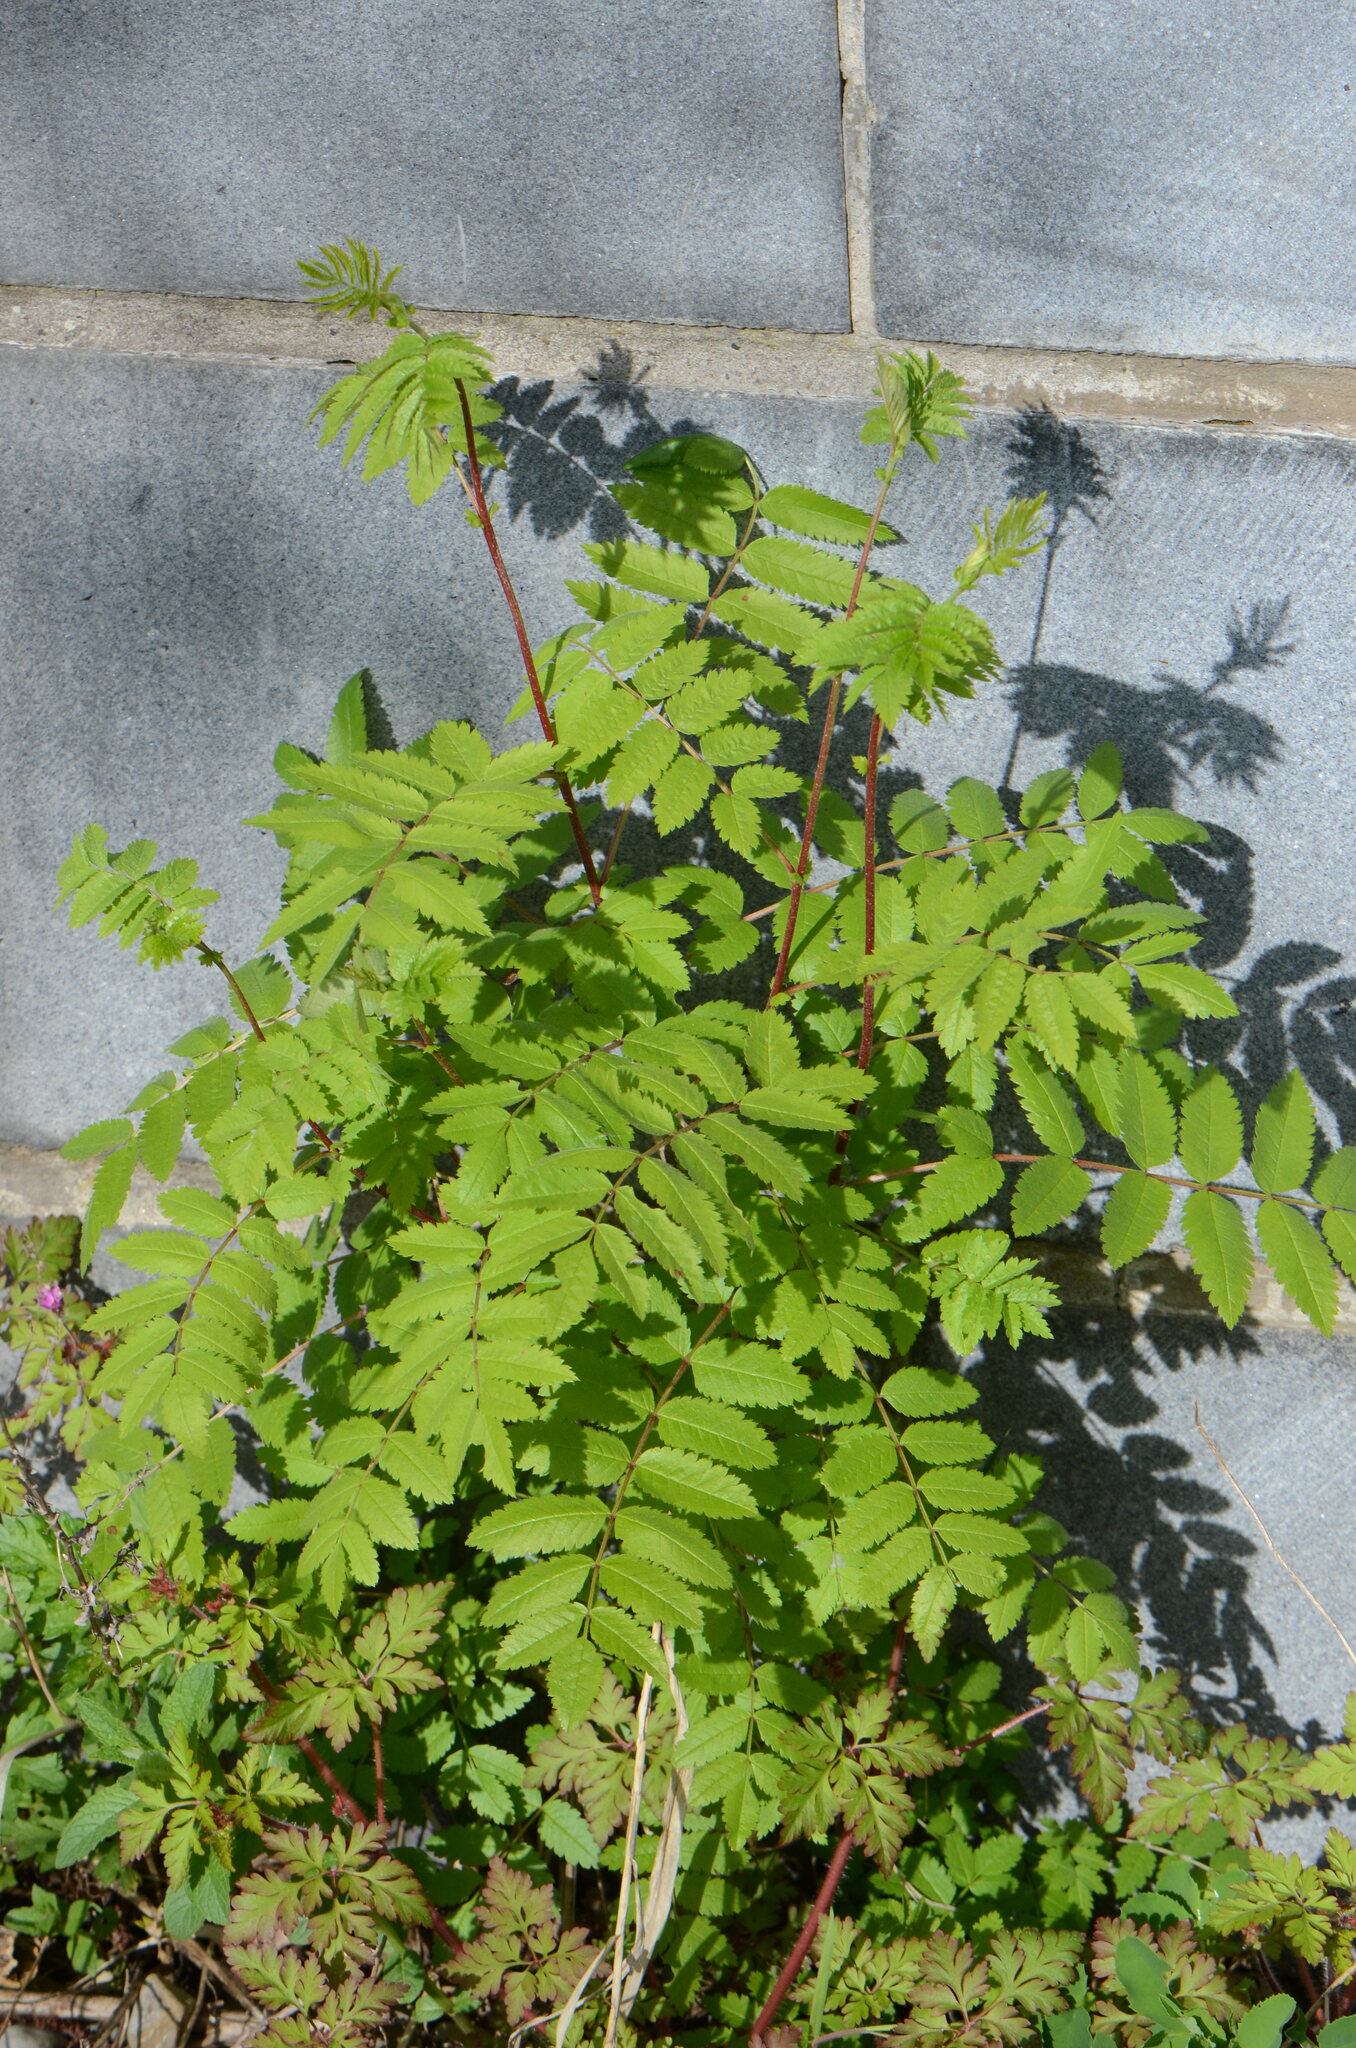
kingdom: Plantae
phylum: Tracheophyta
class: Magnoliopsida
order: Rosales
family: Rosaceae
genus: Sorbus
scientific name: Sorbus aucuparia
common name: Rowan
